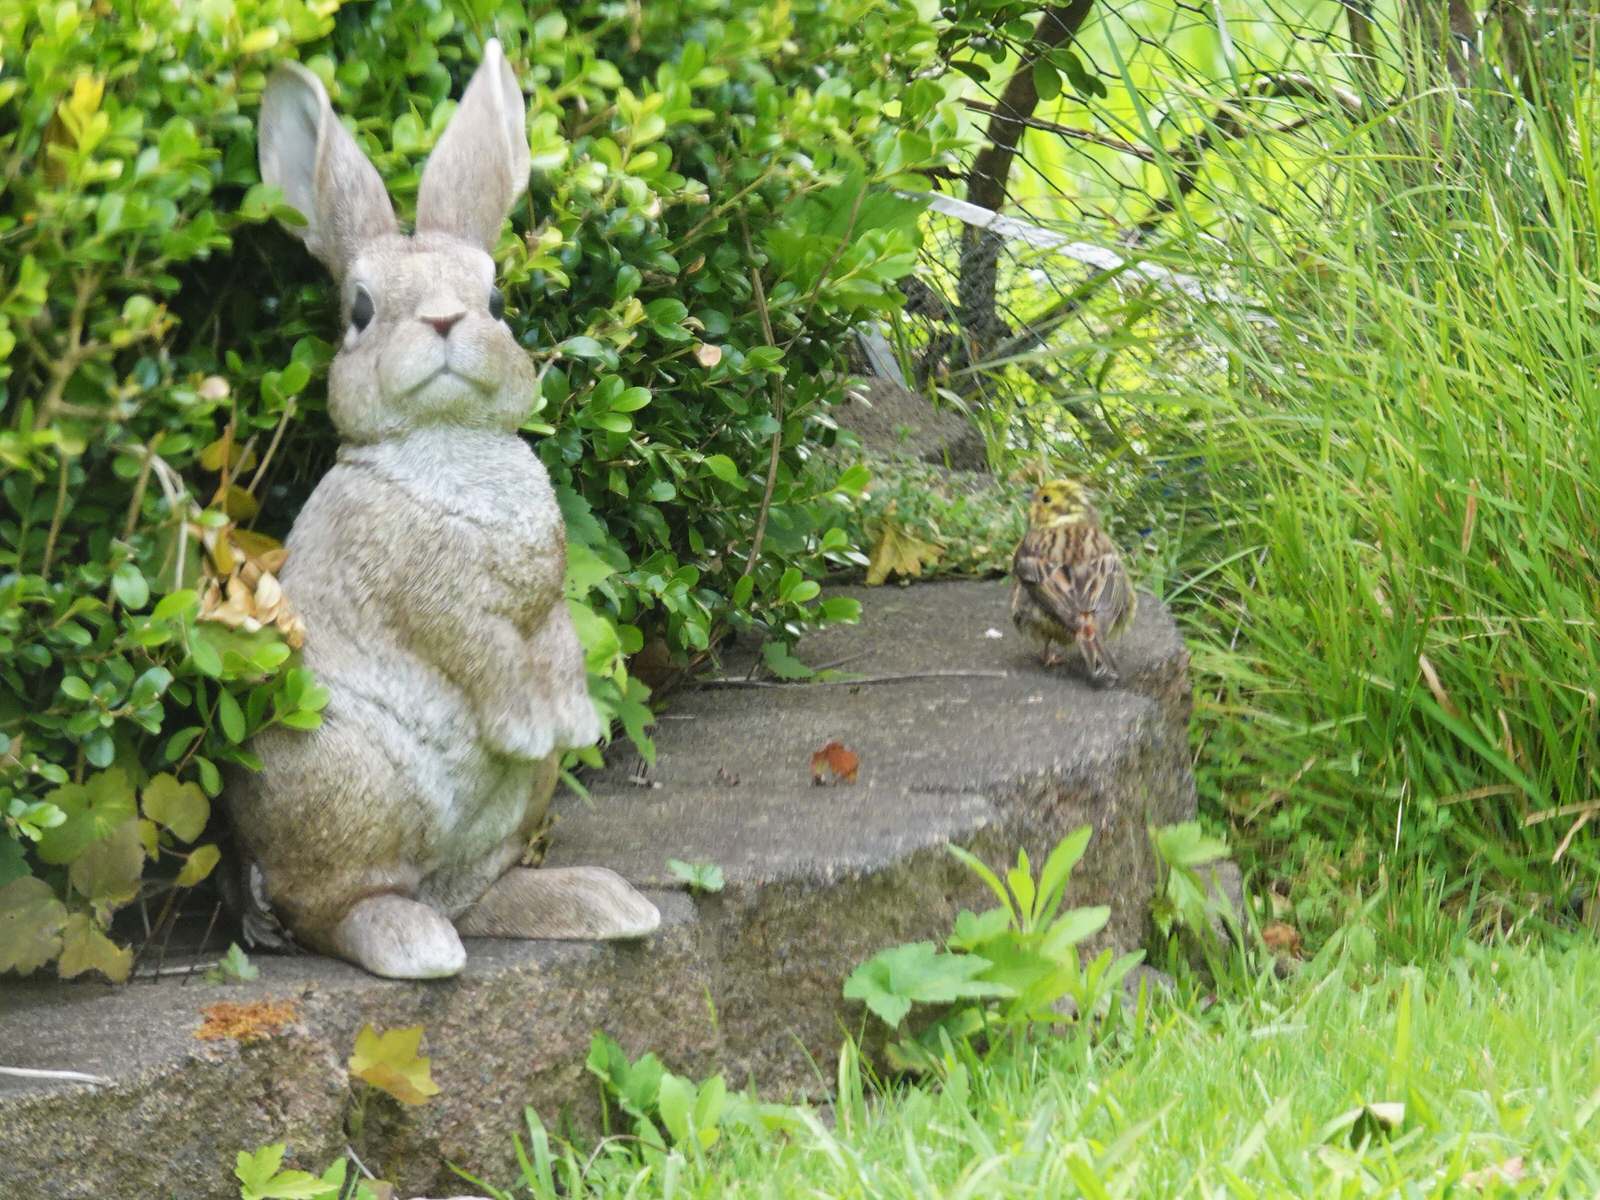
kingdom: Animalia
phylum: Chordata
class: Aves
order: Passeriformes
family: Emberizidae
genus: Emberiza
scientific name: Emberiza citrinella
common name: Yellowhammer
